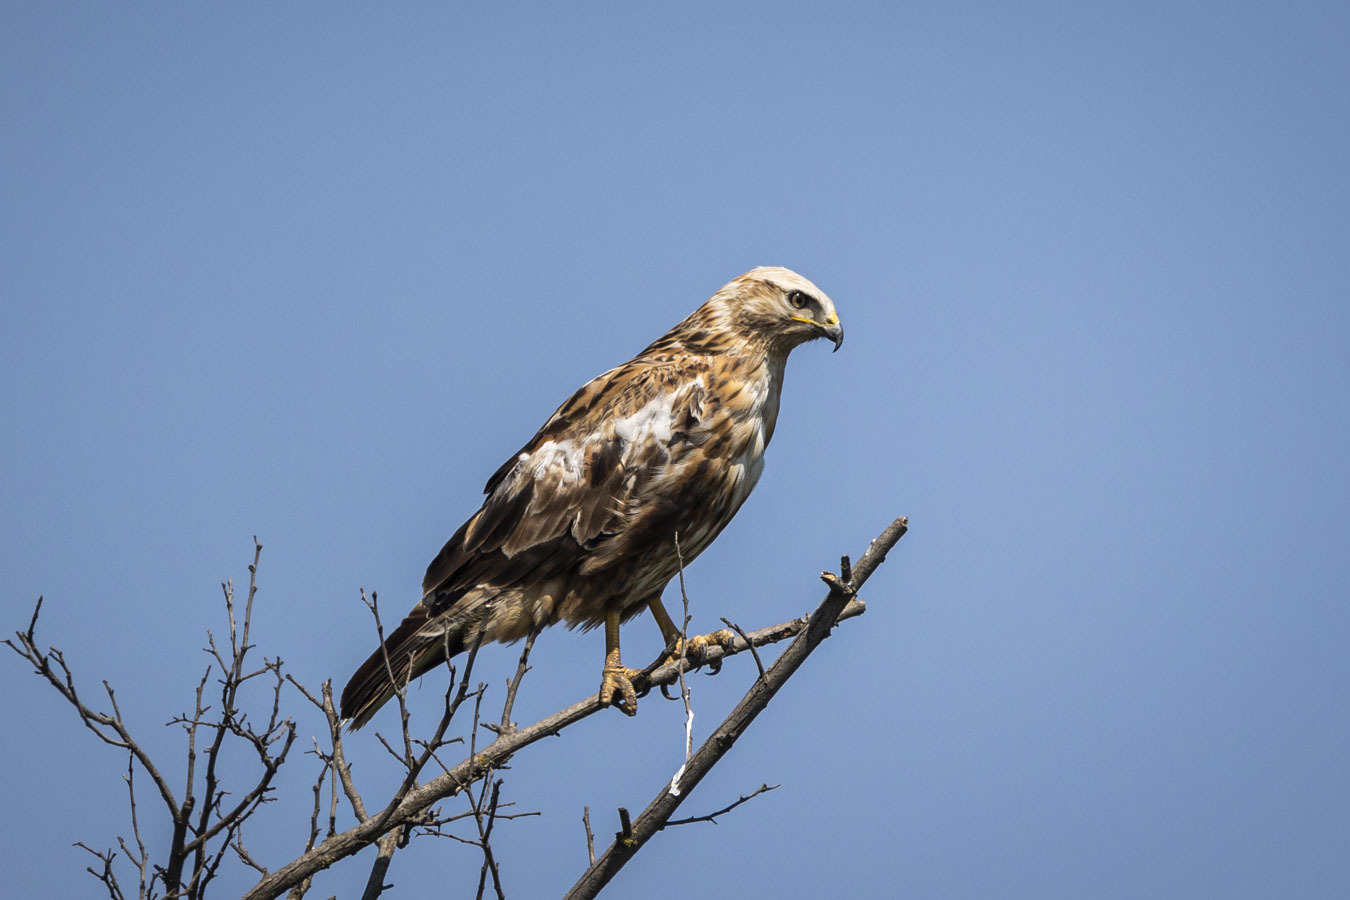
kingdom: Animalia
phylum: Chordata
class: Aves
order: Accipitriformes
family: Accipitridae
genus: Buteo
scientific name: Buteo rufinus
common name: Long-legged buzzard
